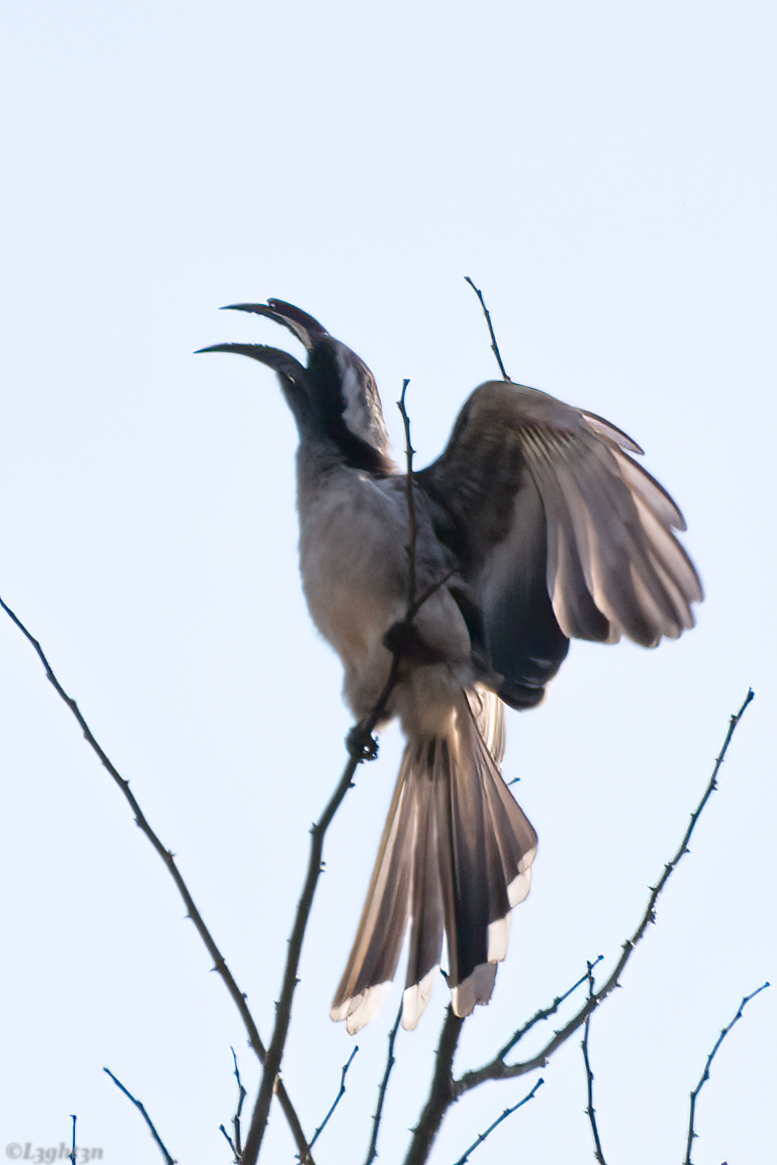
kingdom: Animalia
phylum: Chordata
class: Aves
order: Bucerotiformes
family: Bucerotidae
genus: Lophoceros
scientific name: Lophoceros nasutus
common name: African grey hornbill
